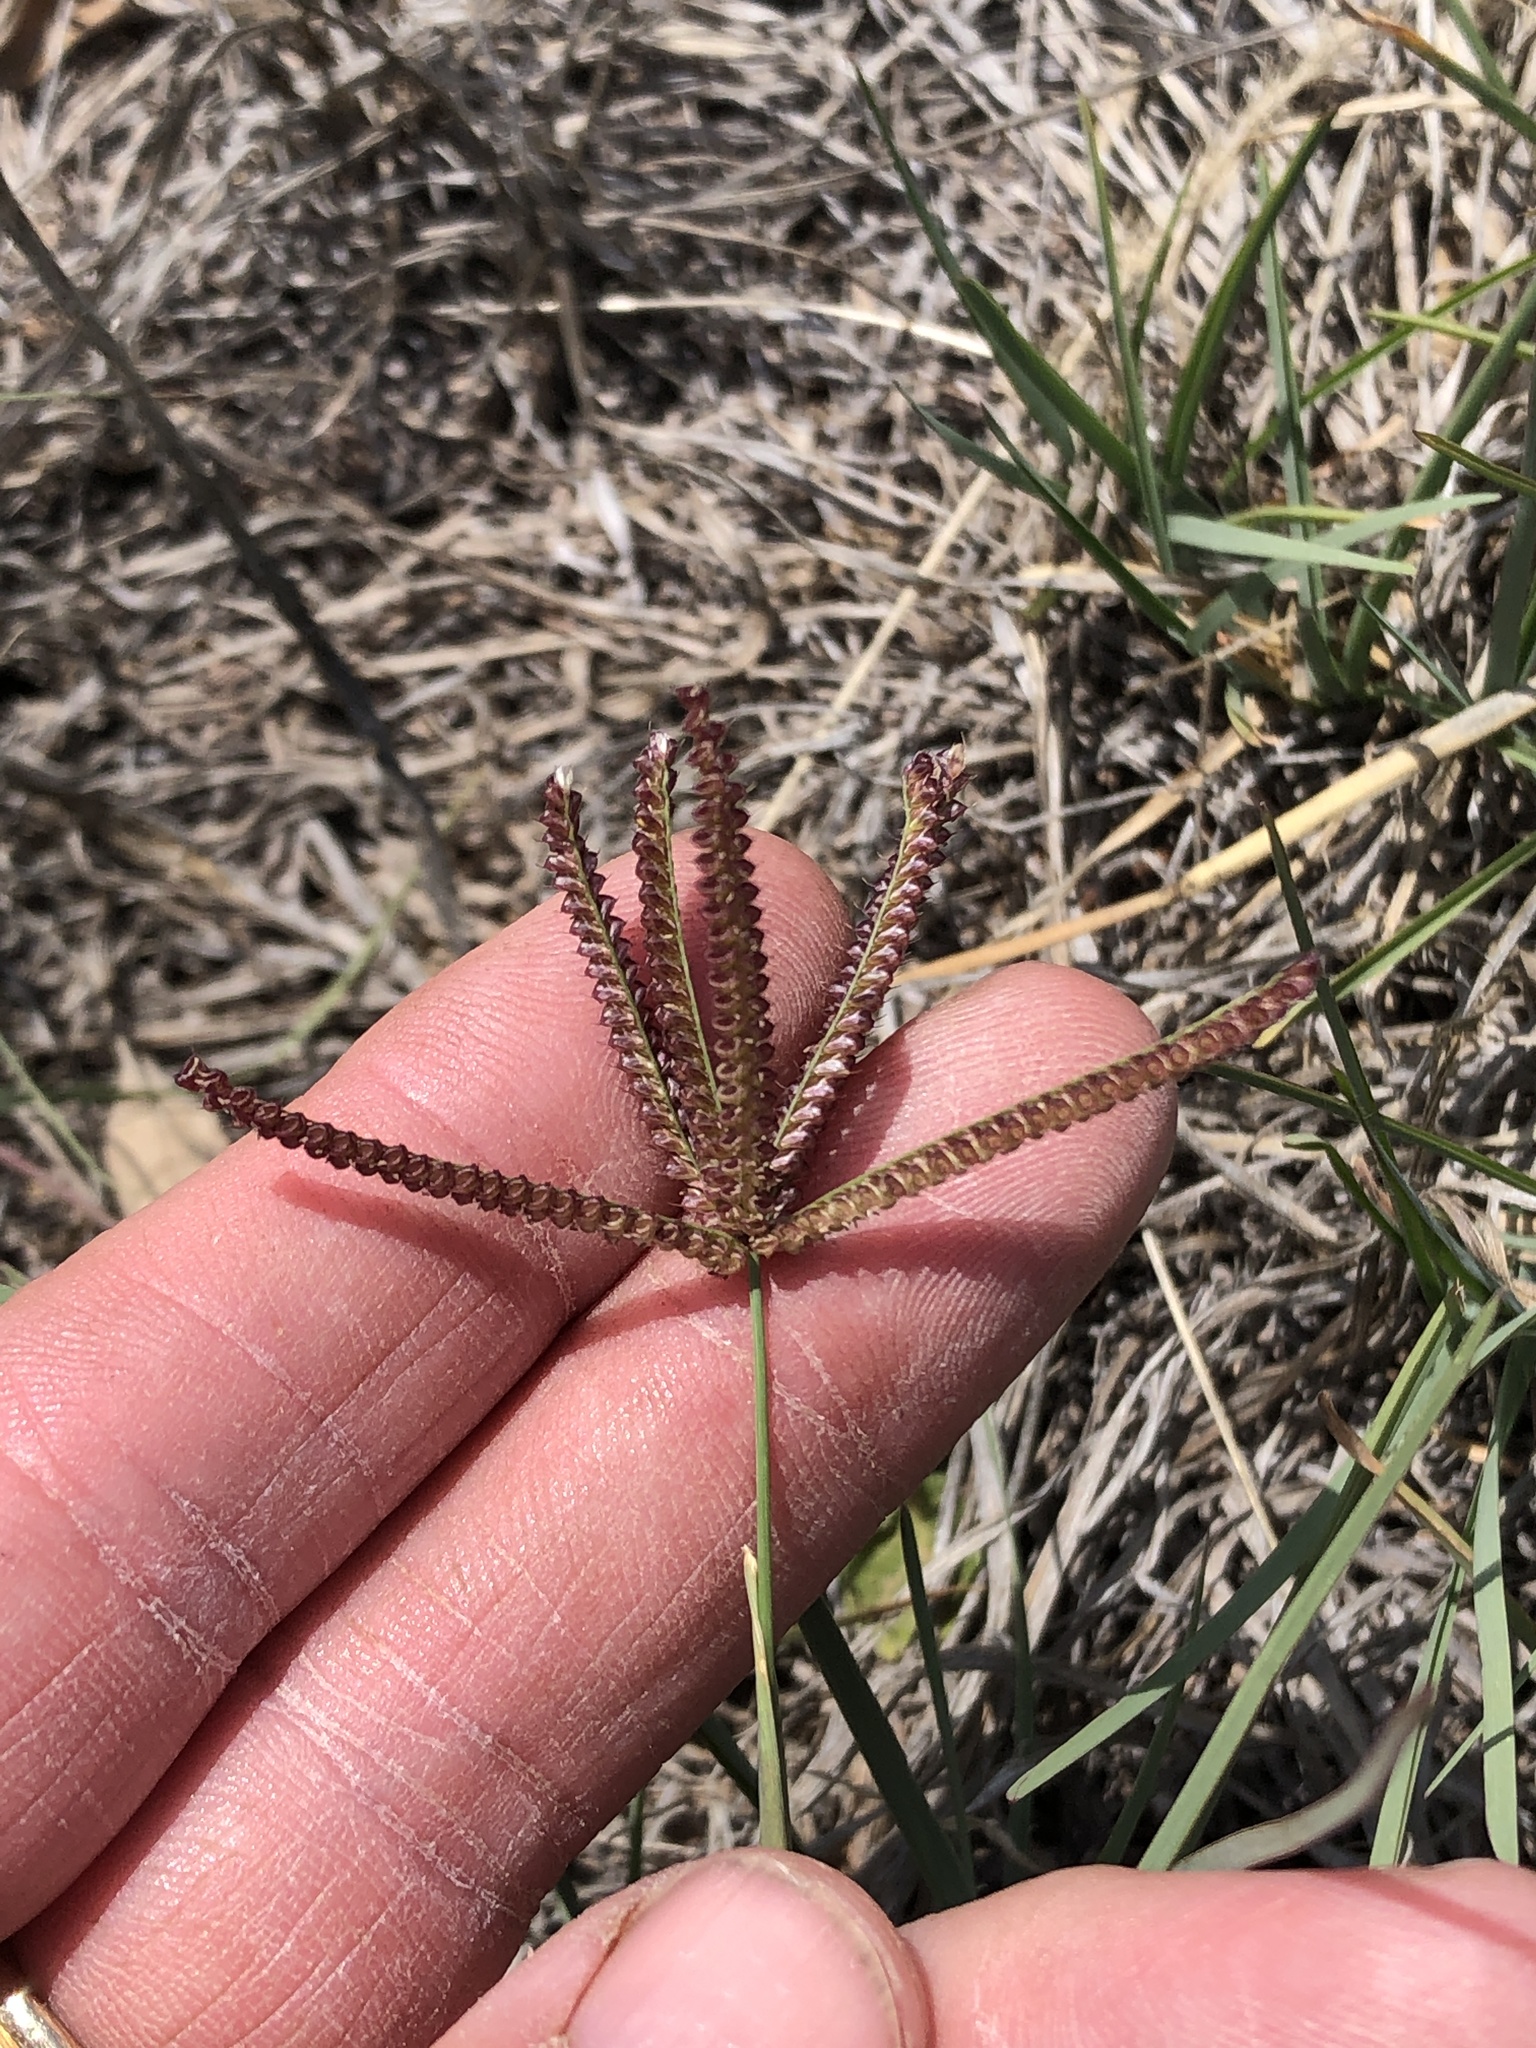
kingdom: Plantae
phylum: Tracheophyta
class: Liliopsida
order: Poales
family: Poaceae
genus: Chloris
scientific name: Chloris cucullata
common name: Hooded windmill grass
